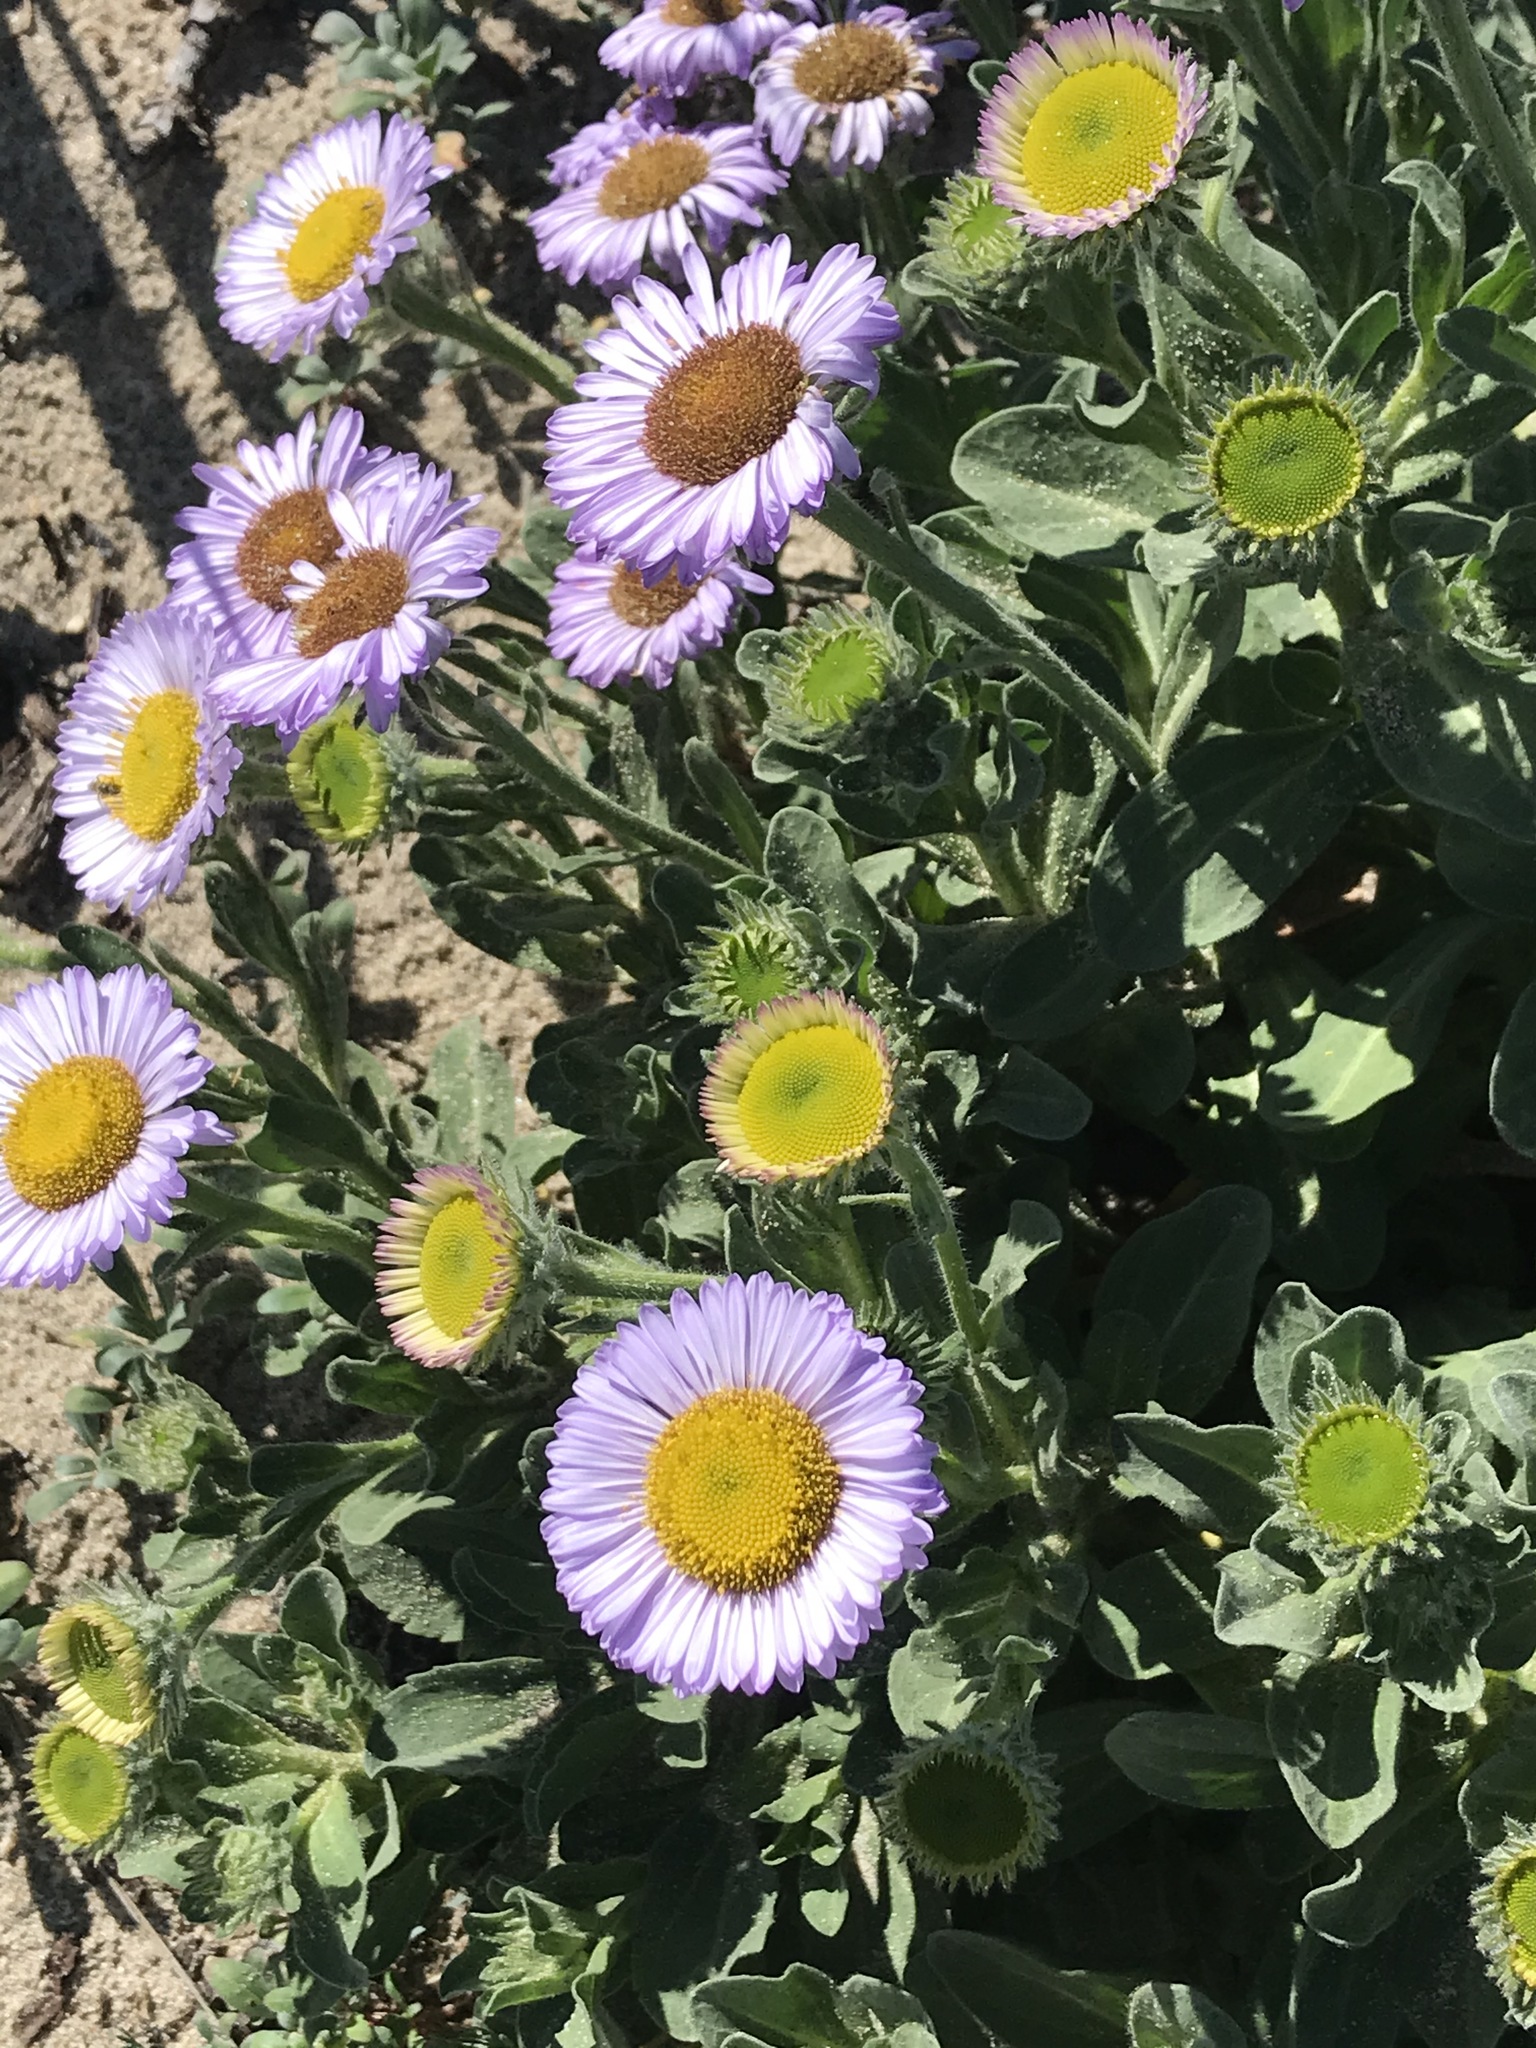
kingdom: Plantae
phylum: Tracheophyta
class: Magnoliopsida
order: Asterales
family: Asteraceae
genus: Erigeron
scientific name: Erigeron glaucus
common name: Seaside daisy
